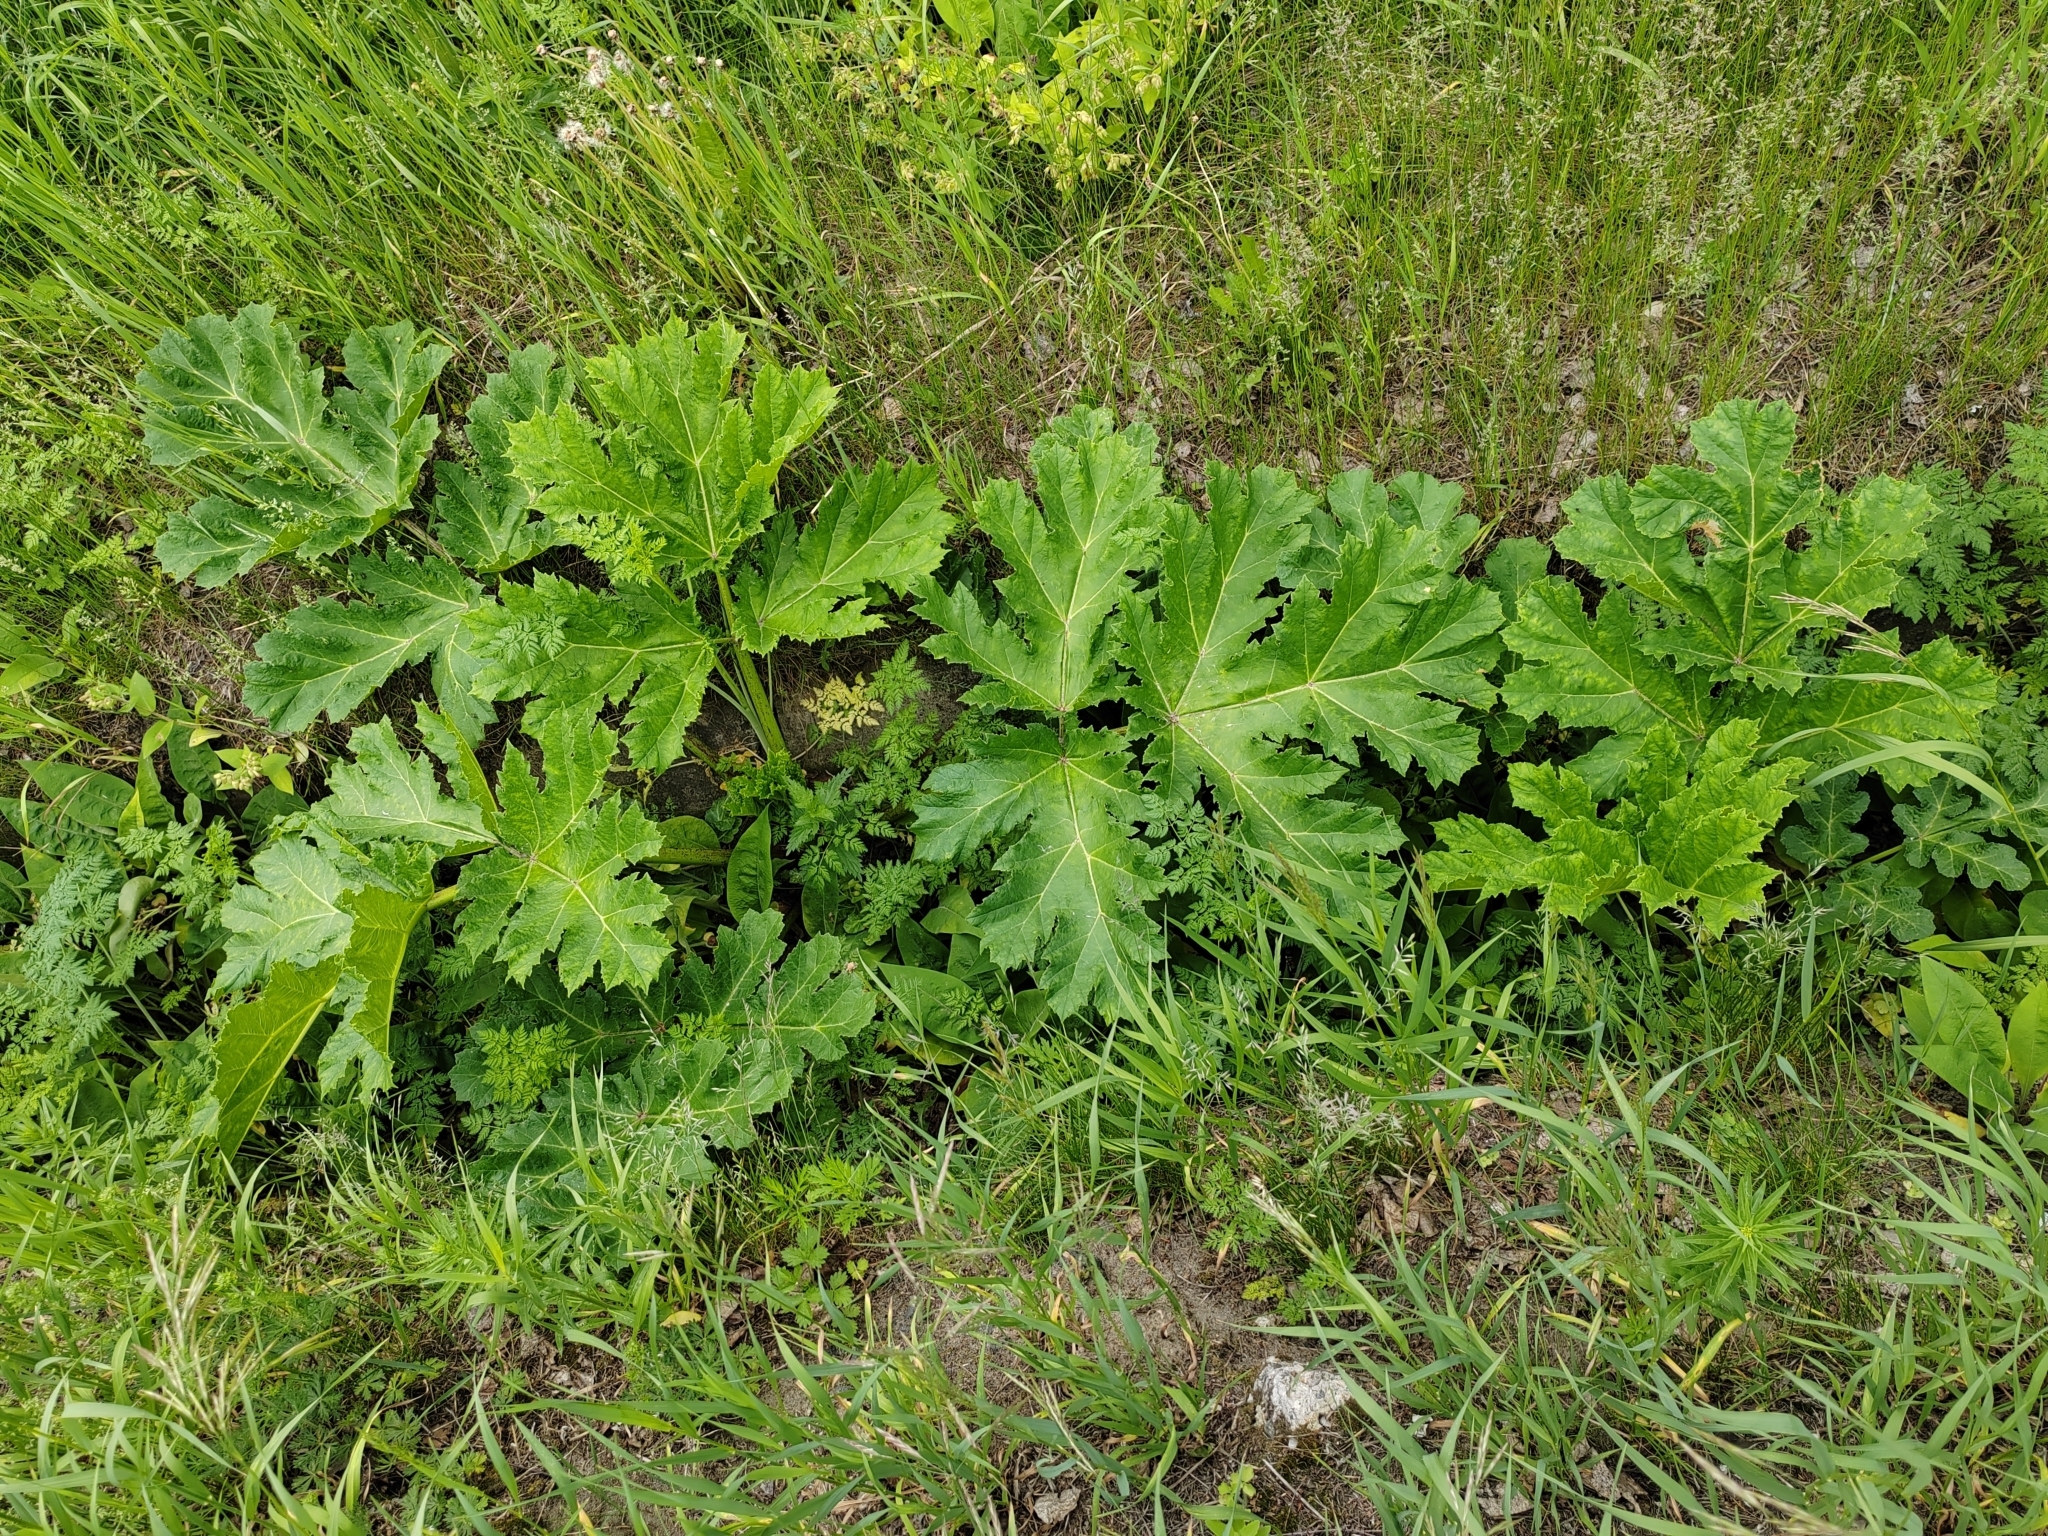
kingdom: Plantae
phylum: Tracheophyta
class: Magnoliopsida
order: Apiales
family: Apiaceae
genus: Heracleum
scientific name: Heracleum sosnowskyi
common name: Sosnowsky's hogweed
